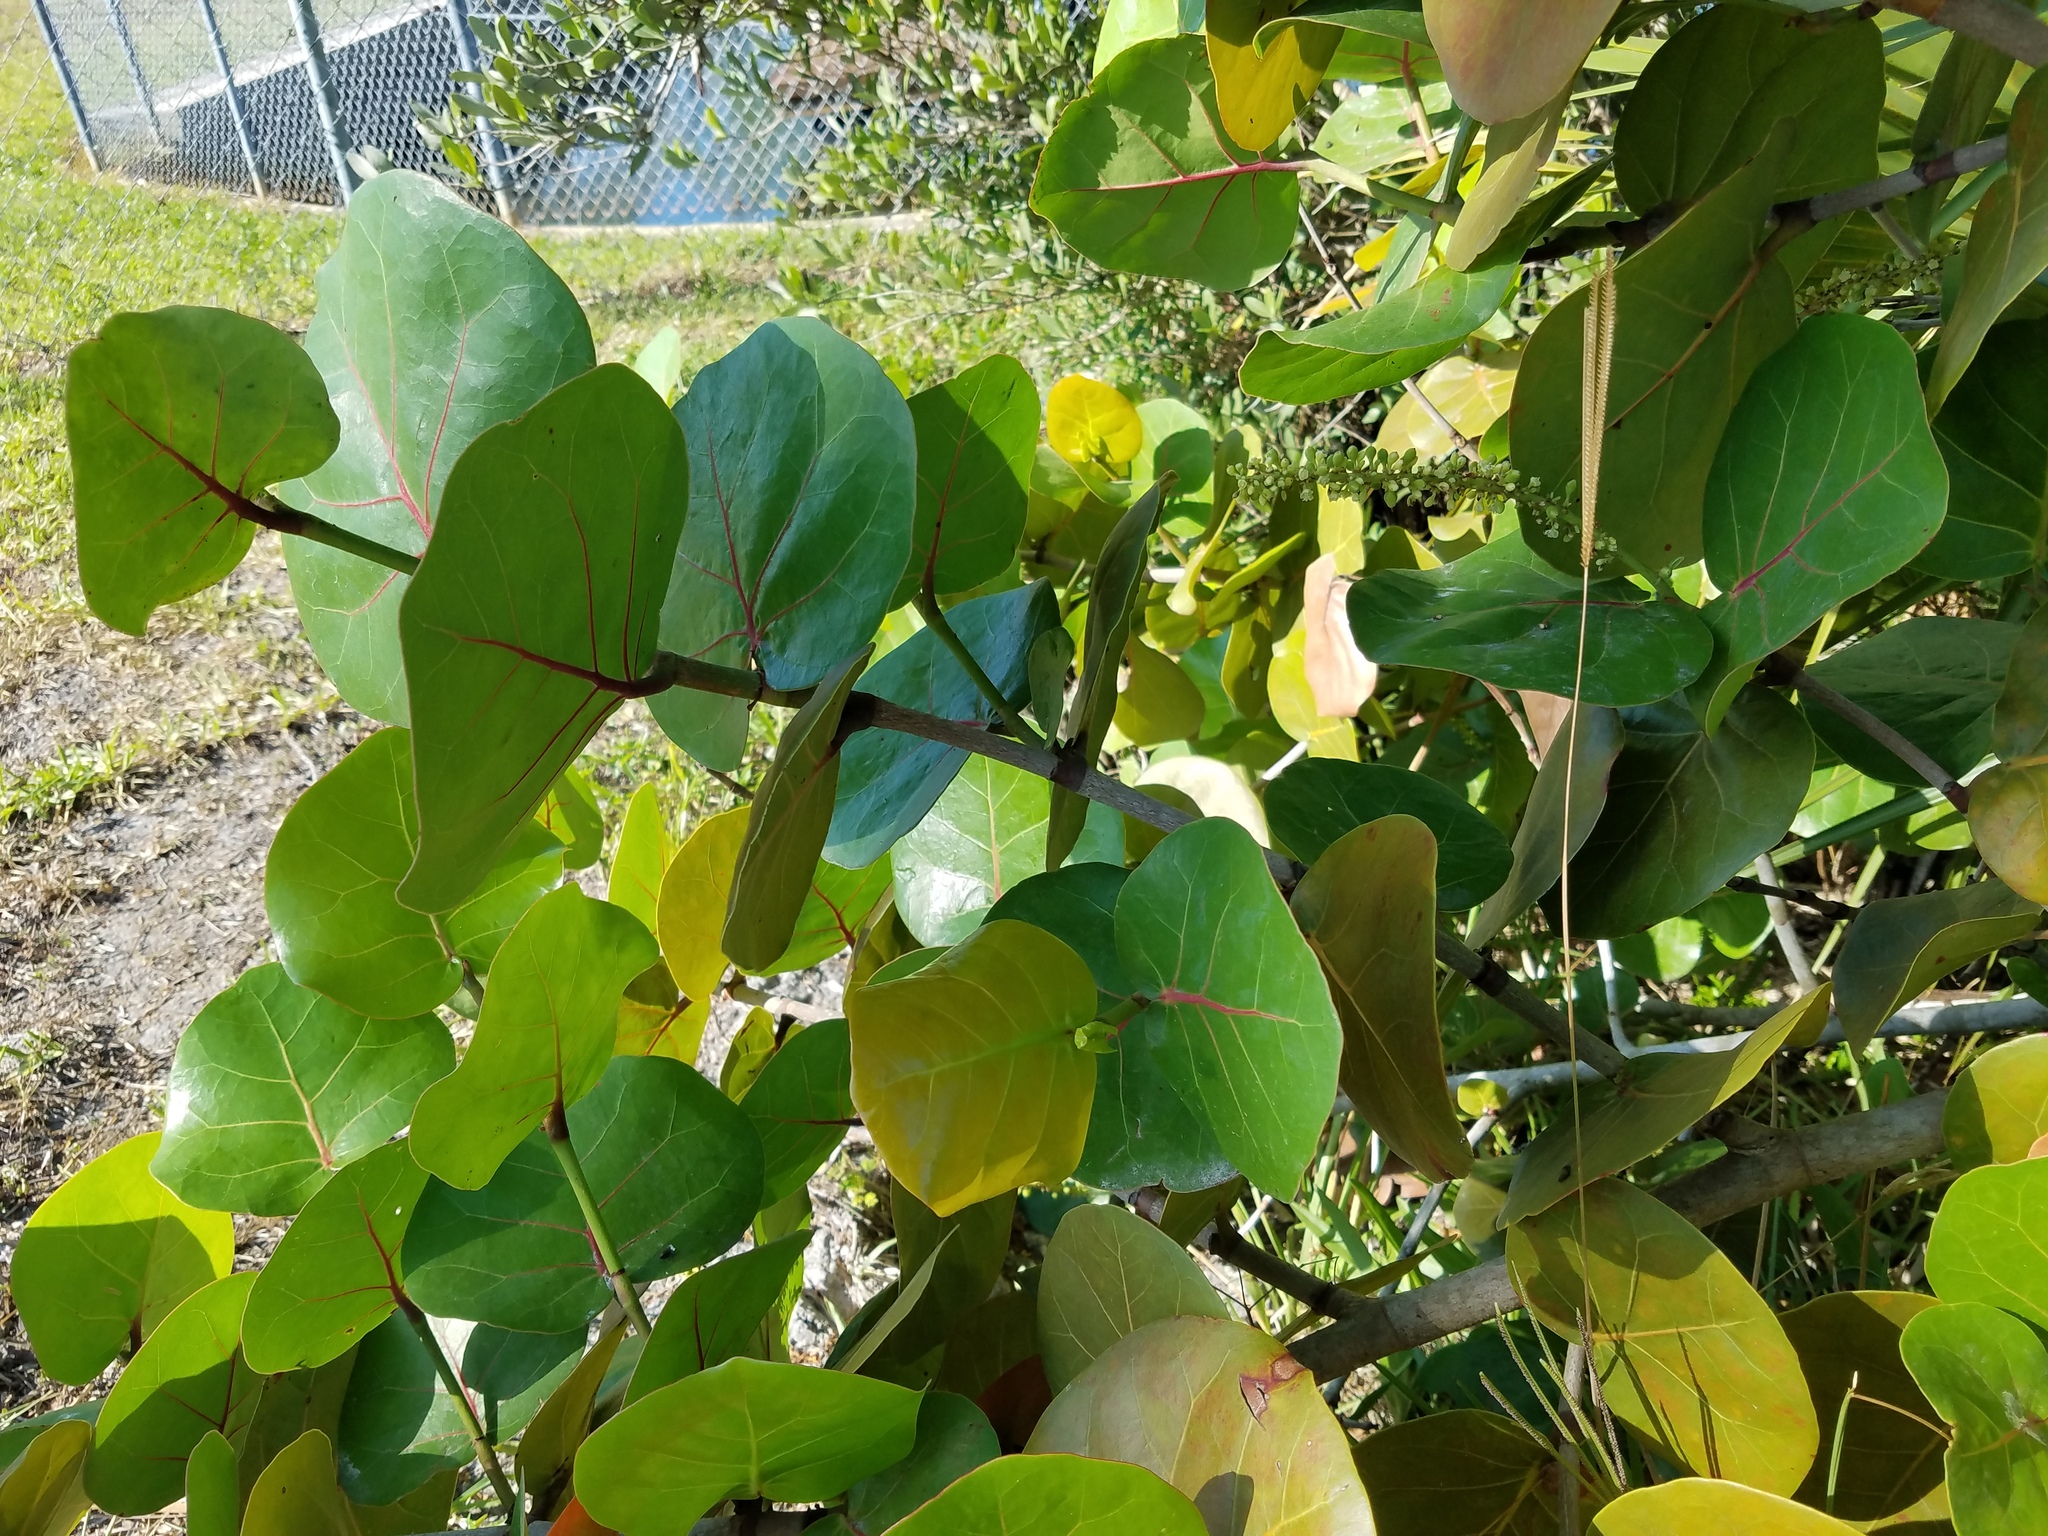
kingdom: Plantae
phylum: Tracheophyta
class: Magnoliopsida
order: Caryophyllales
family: Polygonaceae
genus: Coccoloba
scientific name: Coccoloba uvifera
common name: Seagrape
